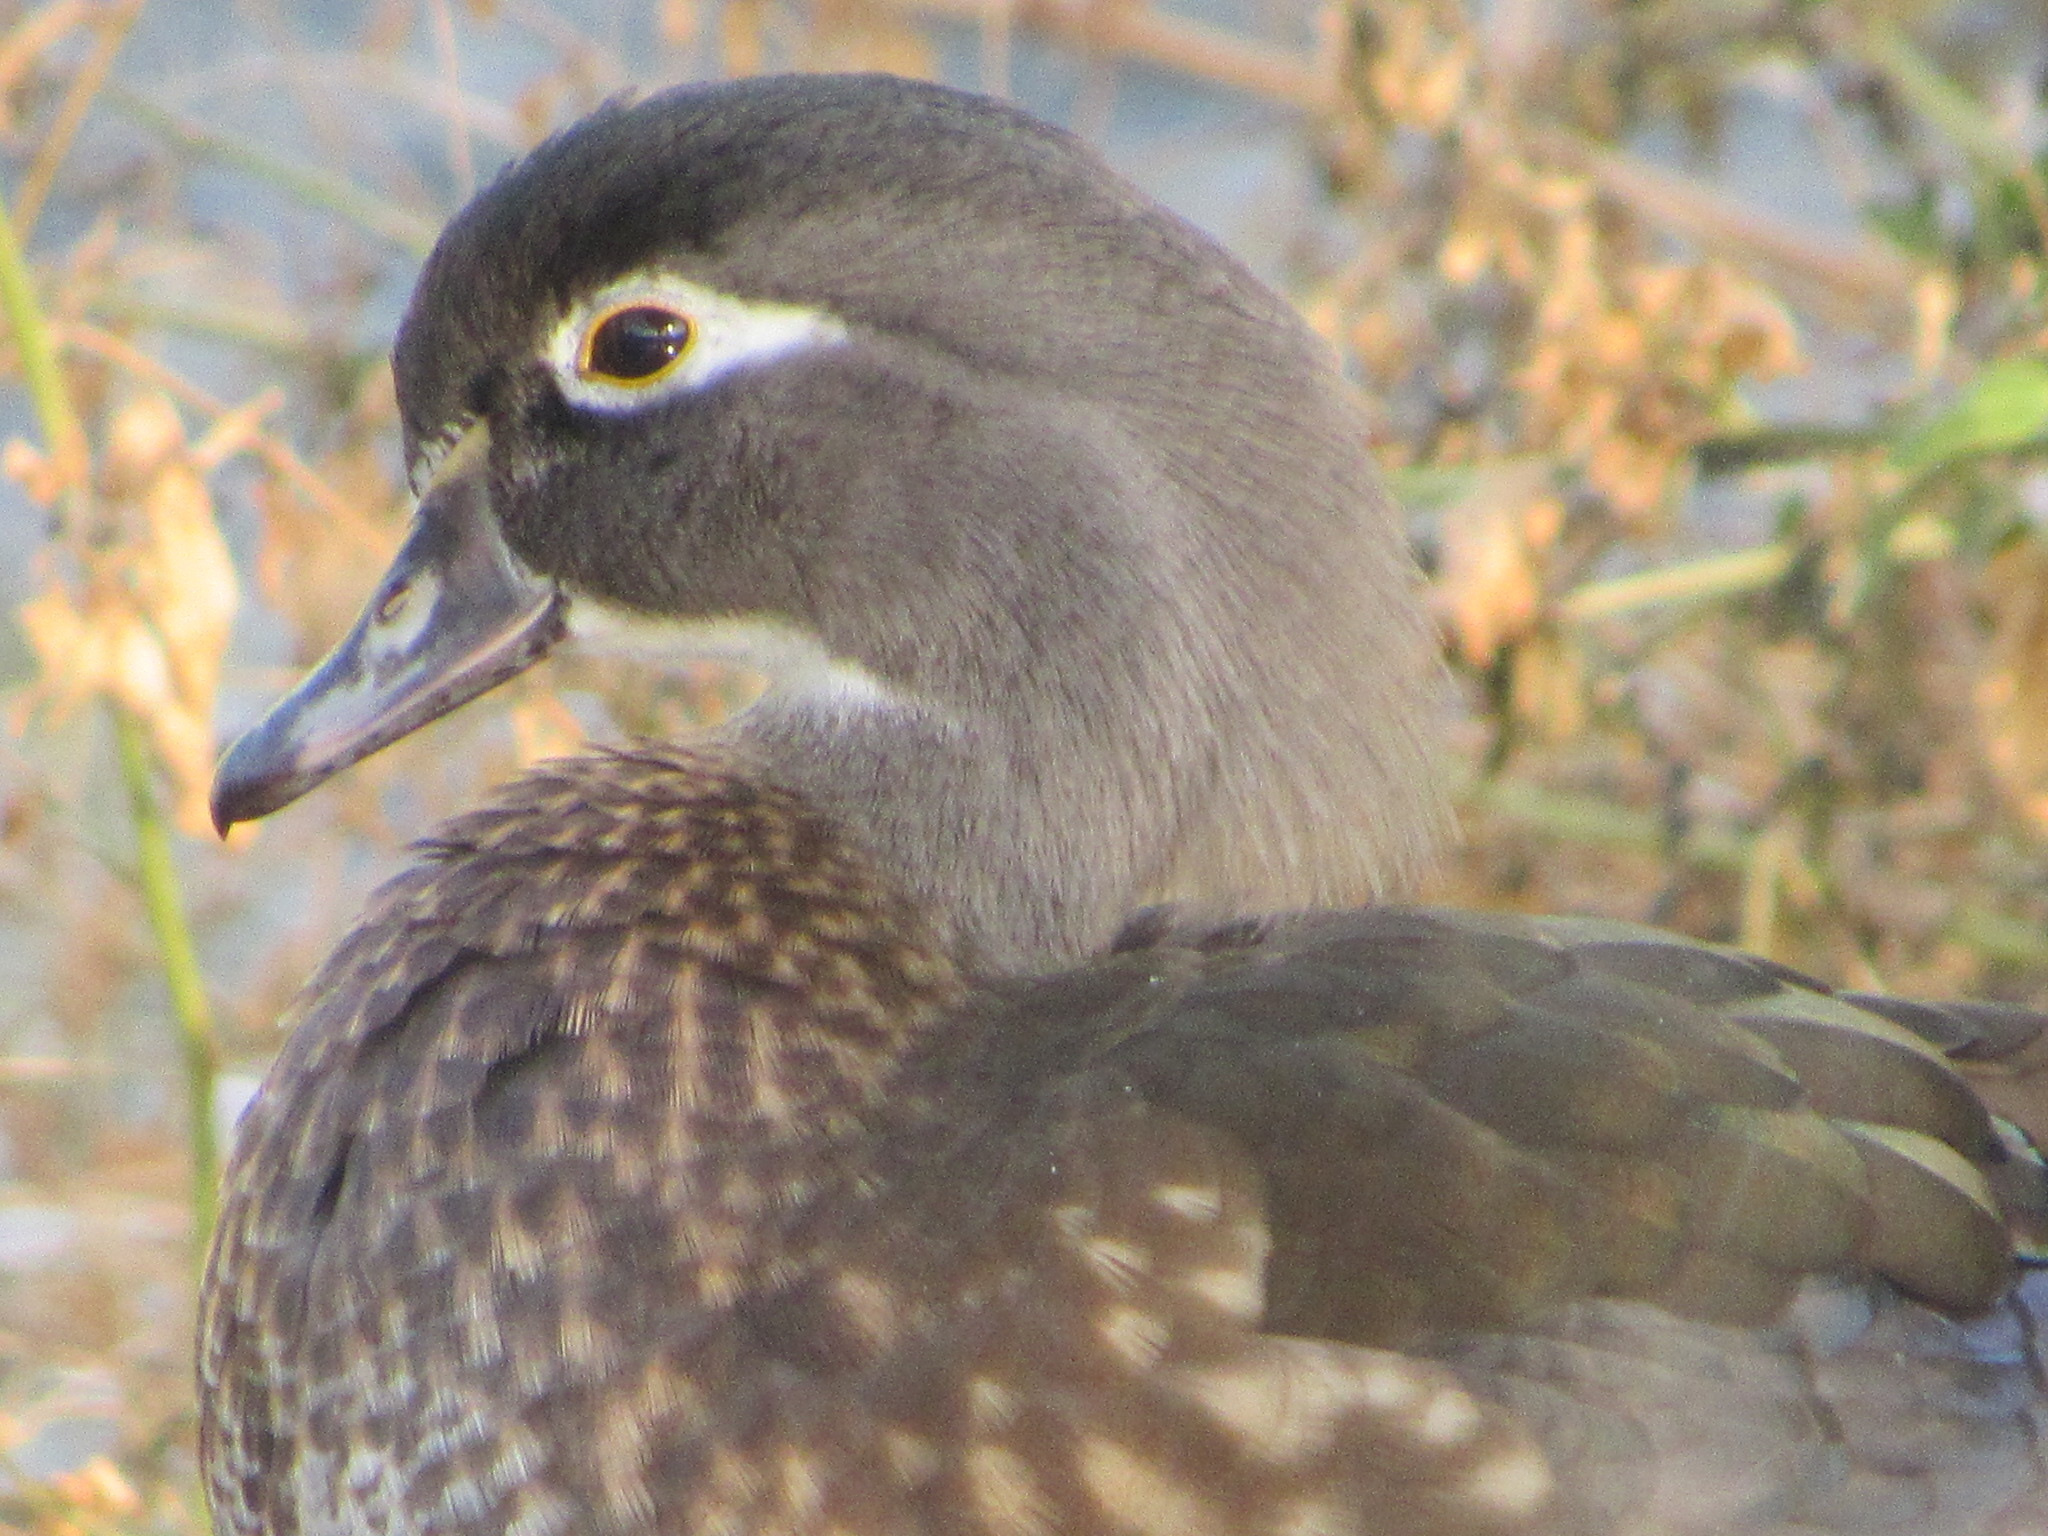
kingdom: Animalia
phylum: Chordata
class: Aves
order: Anseriformes
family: Anatidae
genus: Aix
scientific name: Aix sponsa
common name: Wood duck
